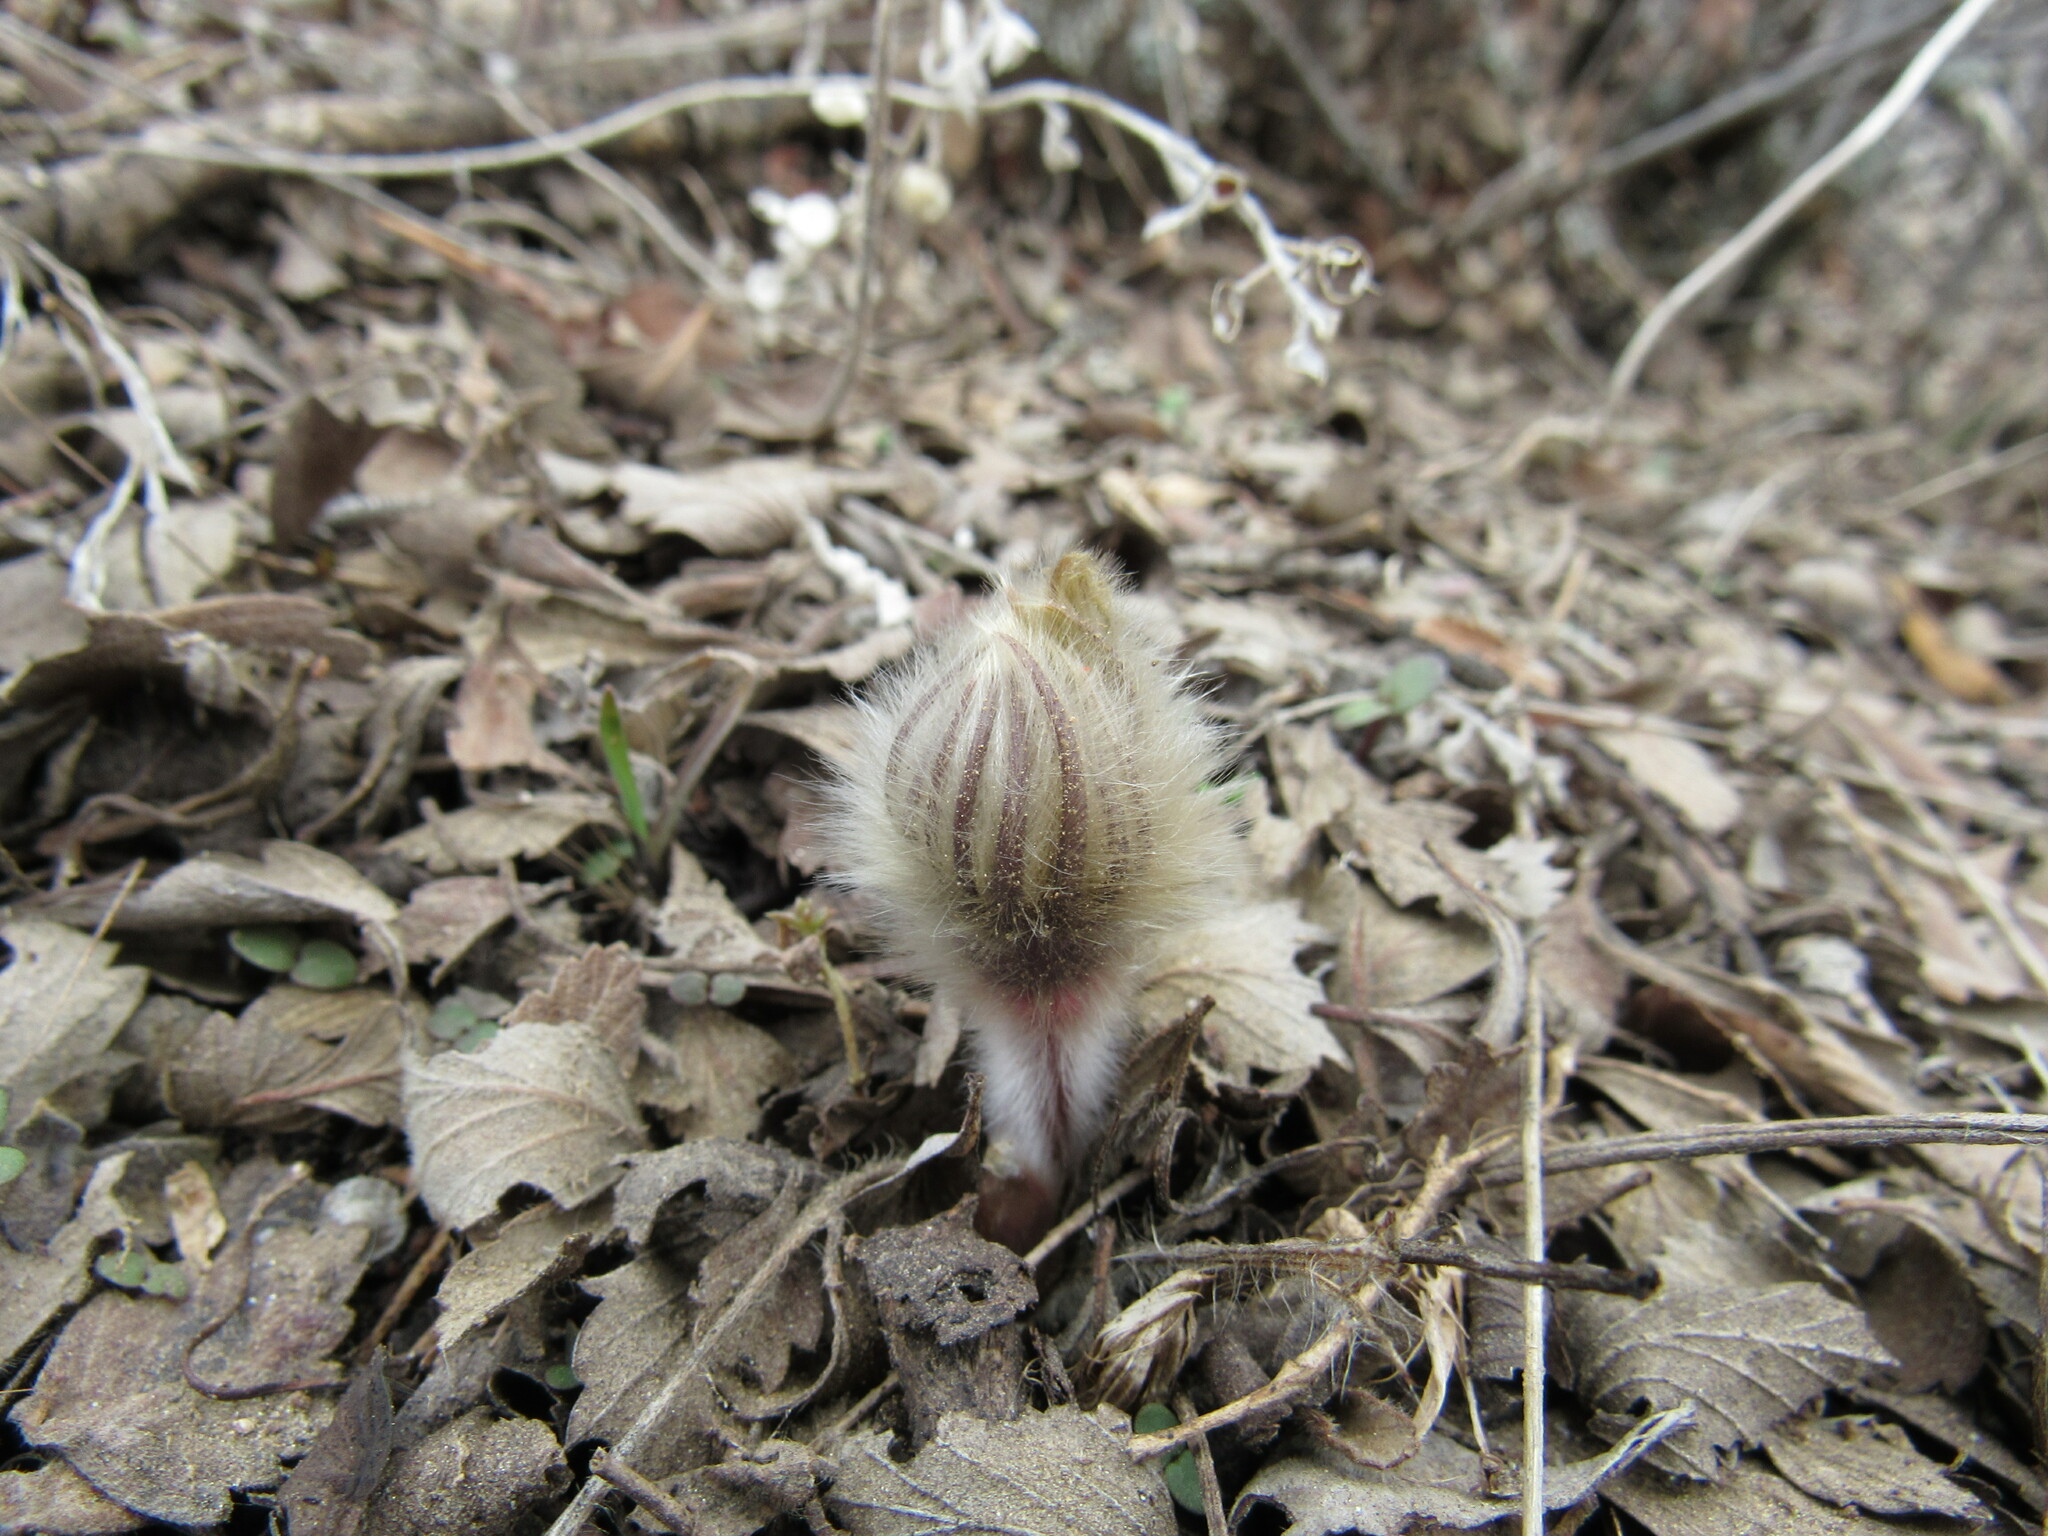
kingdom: Plantae
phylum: Tracheophyta
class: Magnoliopsida
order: Ranunculales
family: Ranunculaceae
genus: Pulsatilla
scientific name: Pulsatilla nuttalliana
